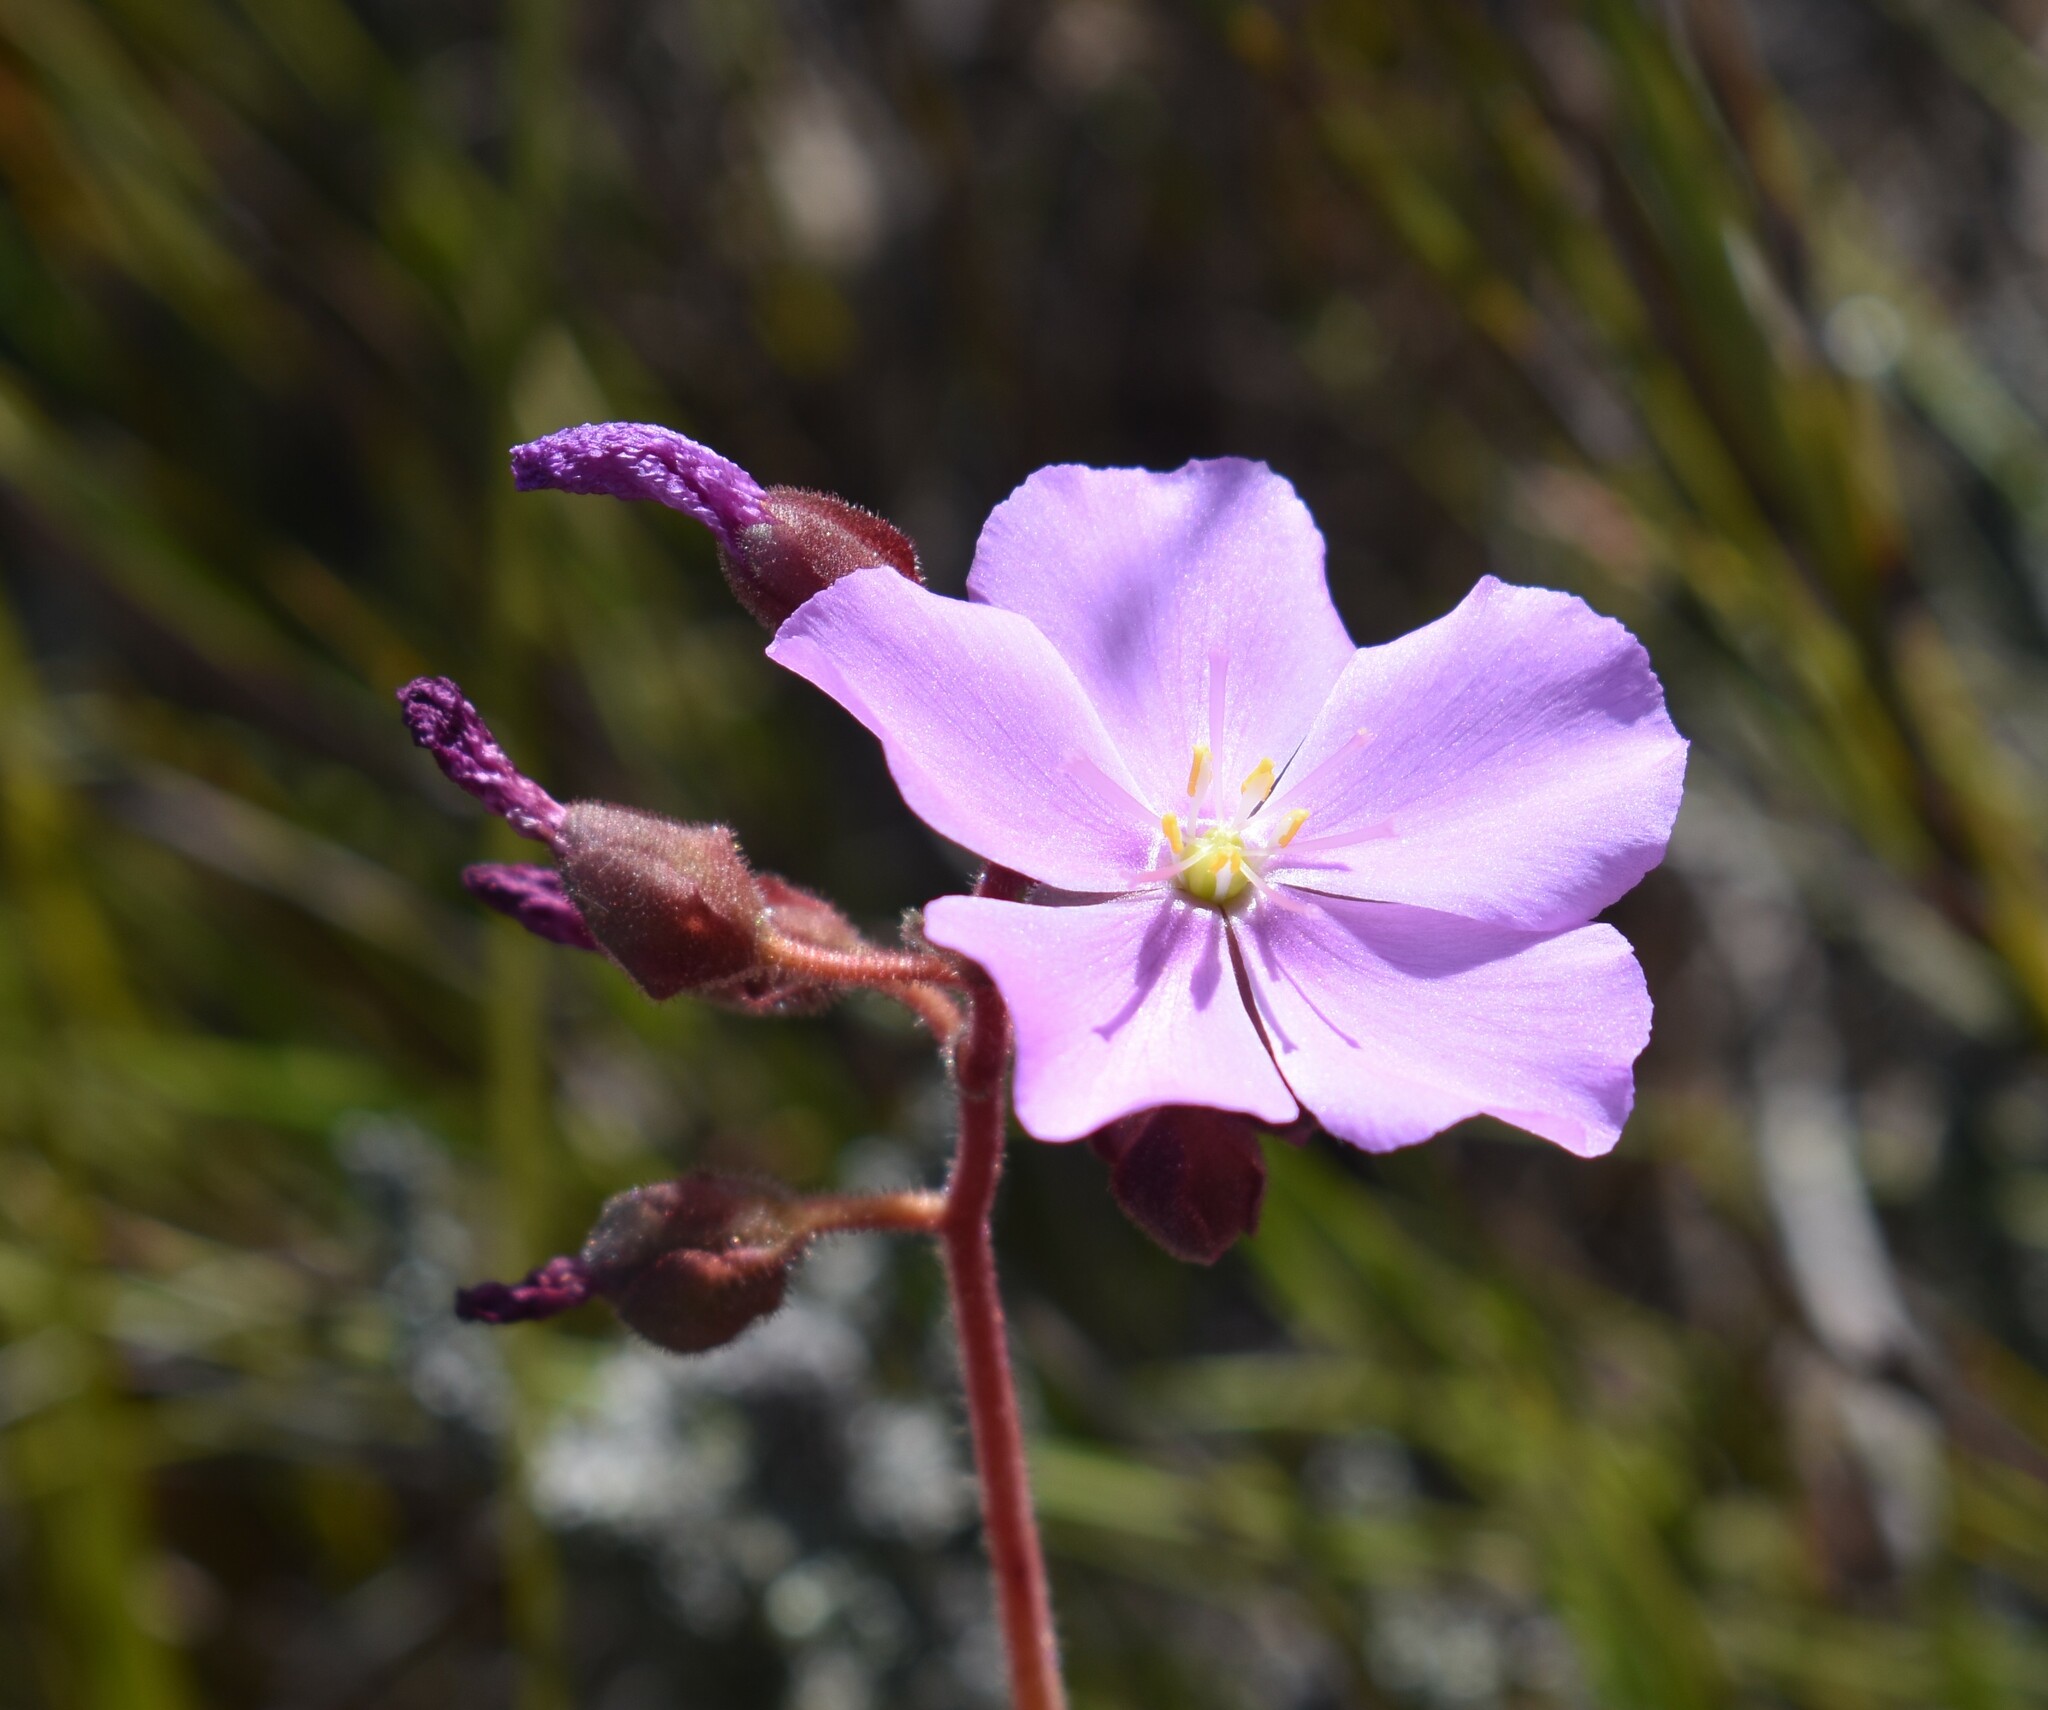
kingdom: Plantae
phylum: Tracheophyta
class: Magnoliopsida
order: Caryophyllales
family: Droseraceae
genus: Drosera
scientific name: Drosera hilaris
